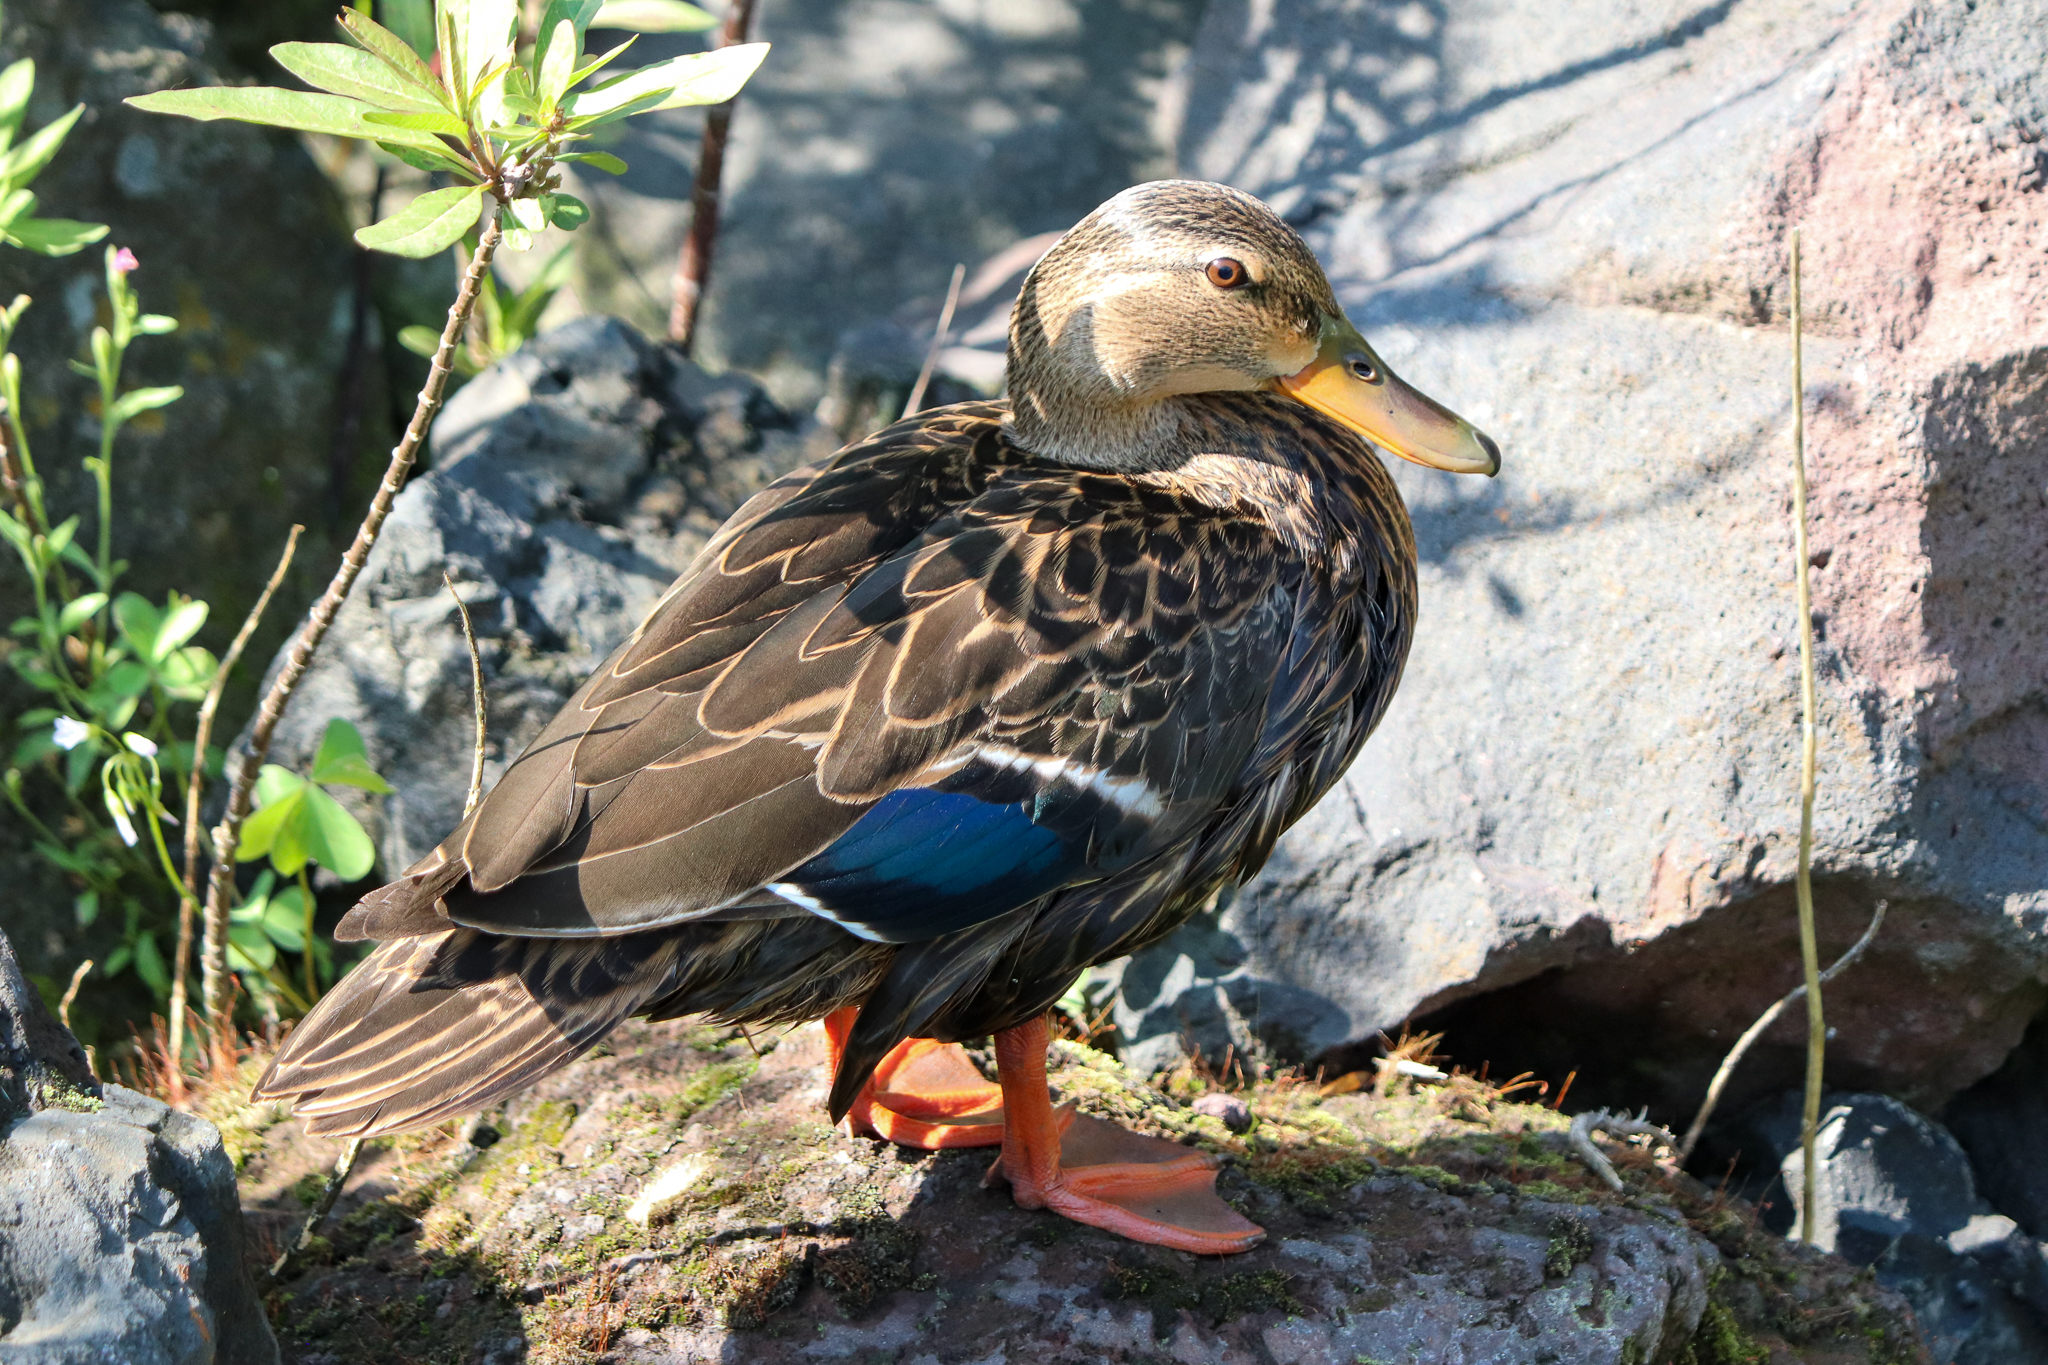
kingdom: Animalia
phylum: Chordata
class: Aves
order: Anseriformes
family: Anatidae
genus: Anas
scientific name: Anas diazi
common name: Mexican duck
